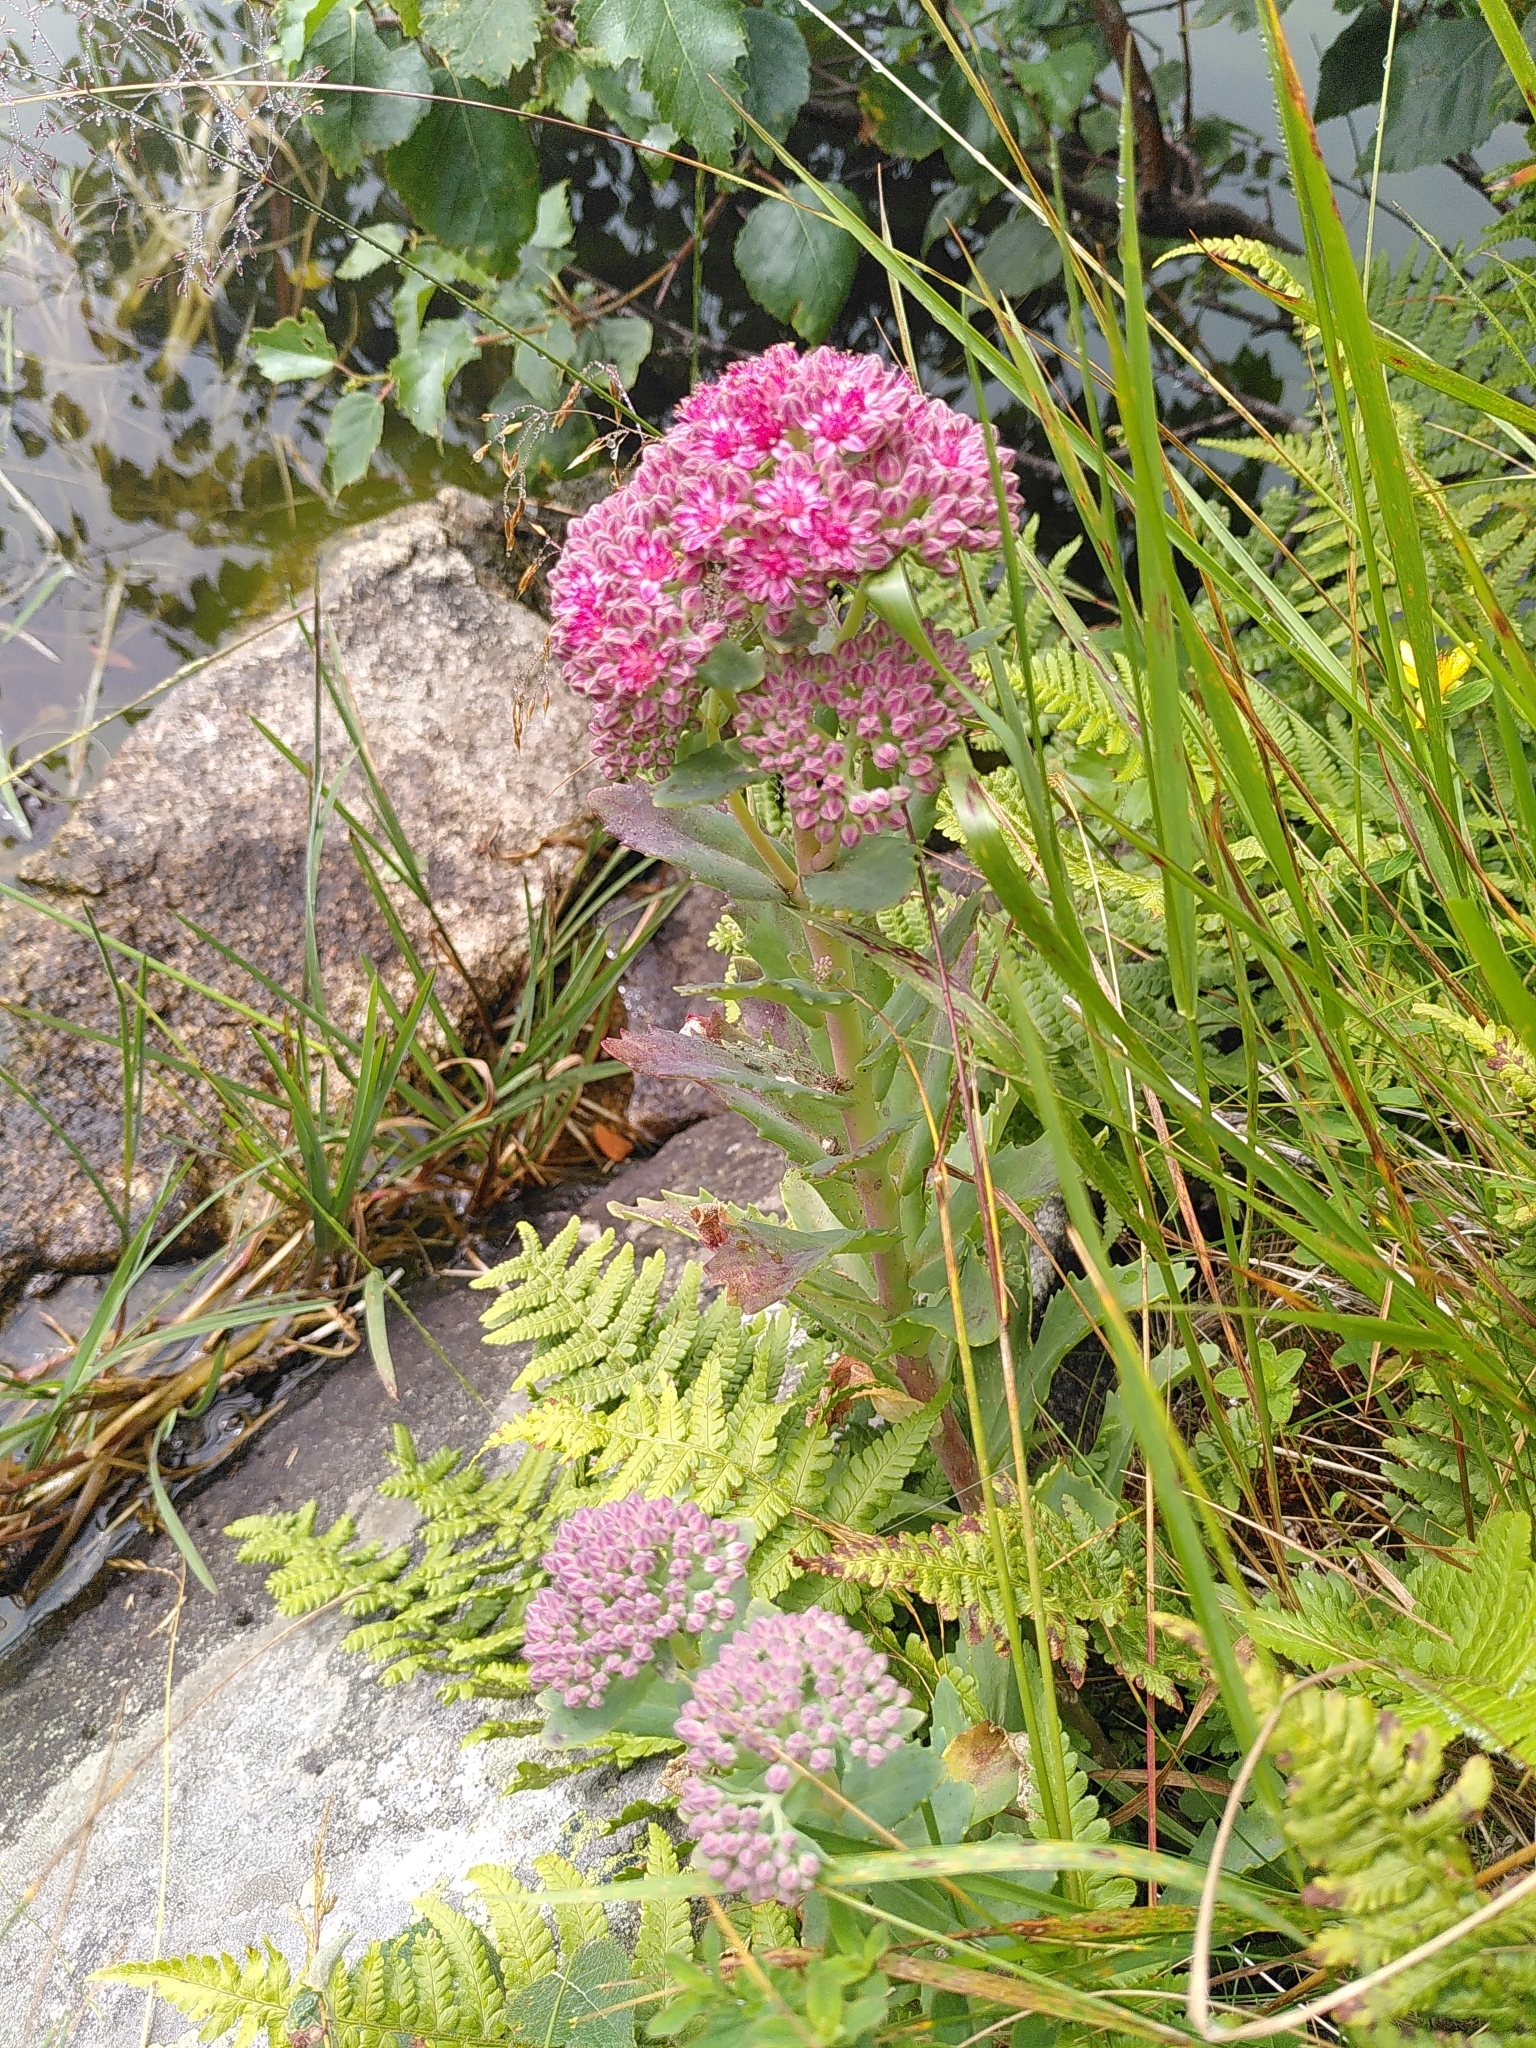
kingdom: Plantae
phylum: Tracheophyta
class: Magnoliopsida
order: Saxifragales
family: Crassulaceae
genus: Hylotelephium
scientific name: Hylotelephium telephium
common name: Live-forever
